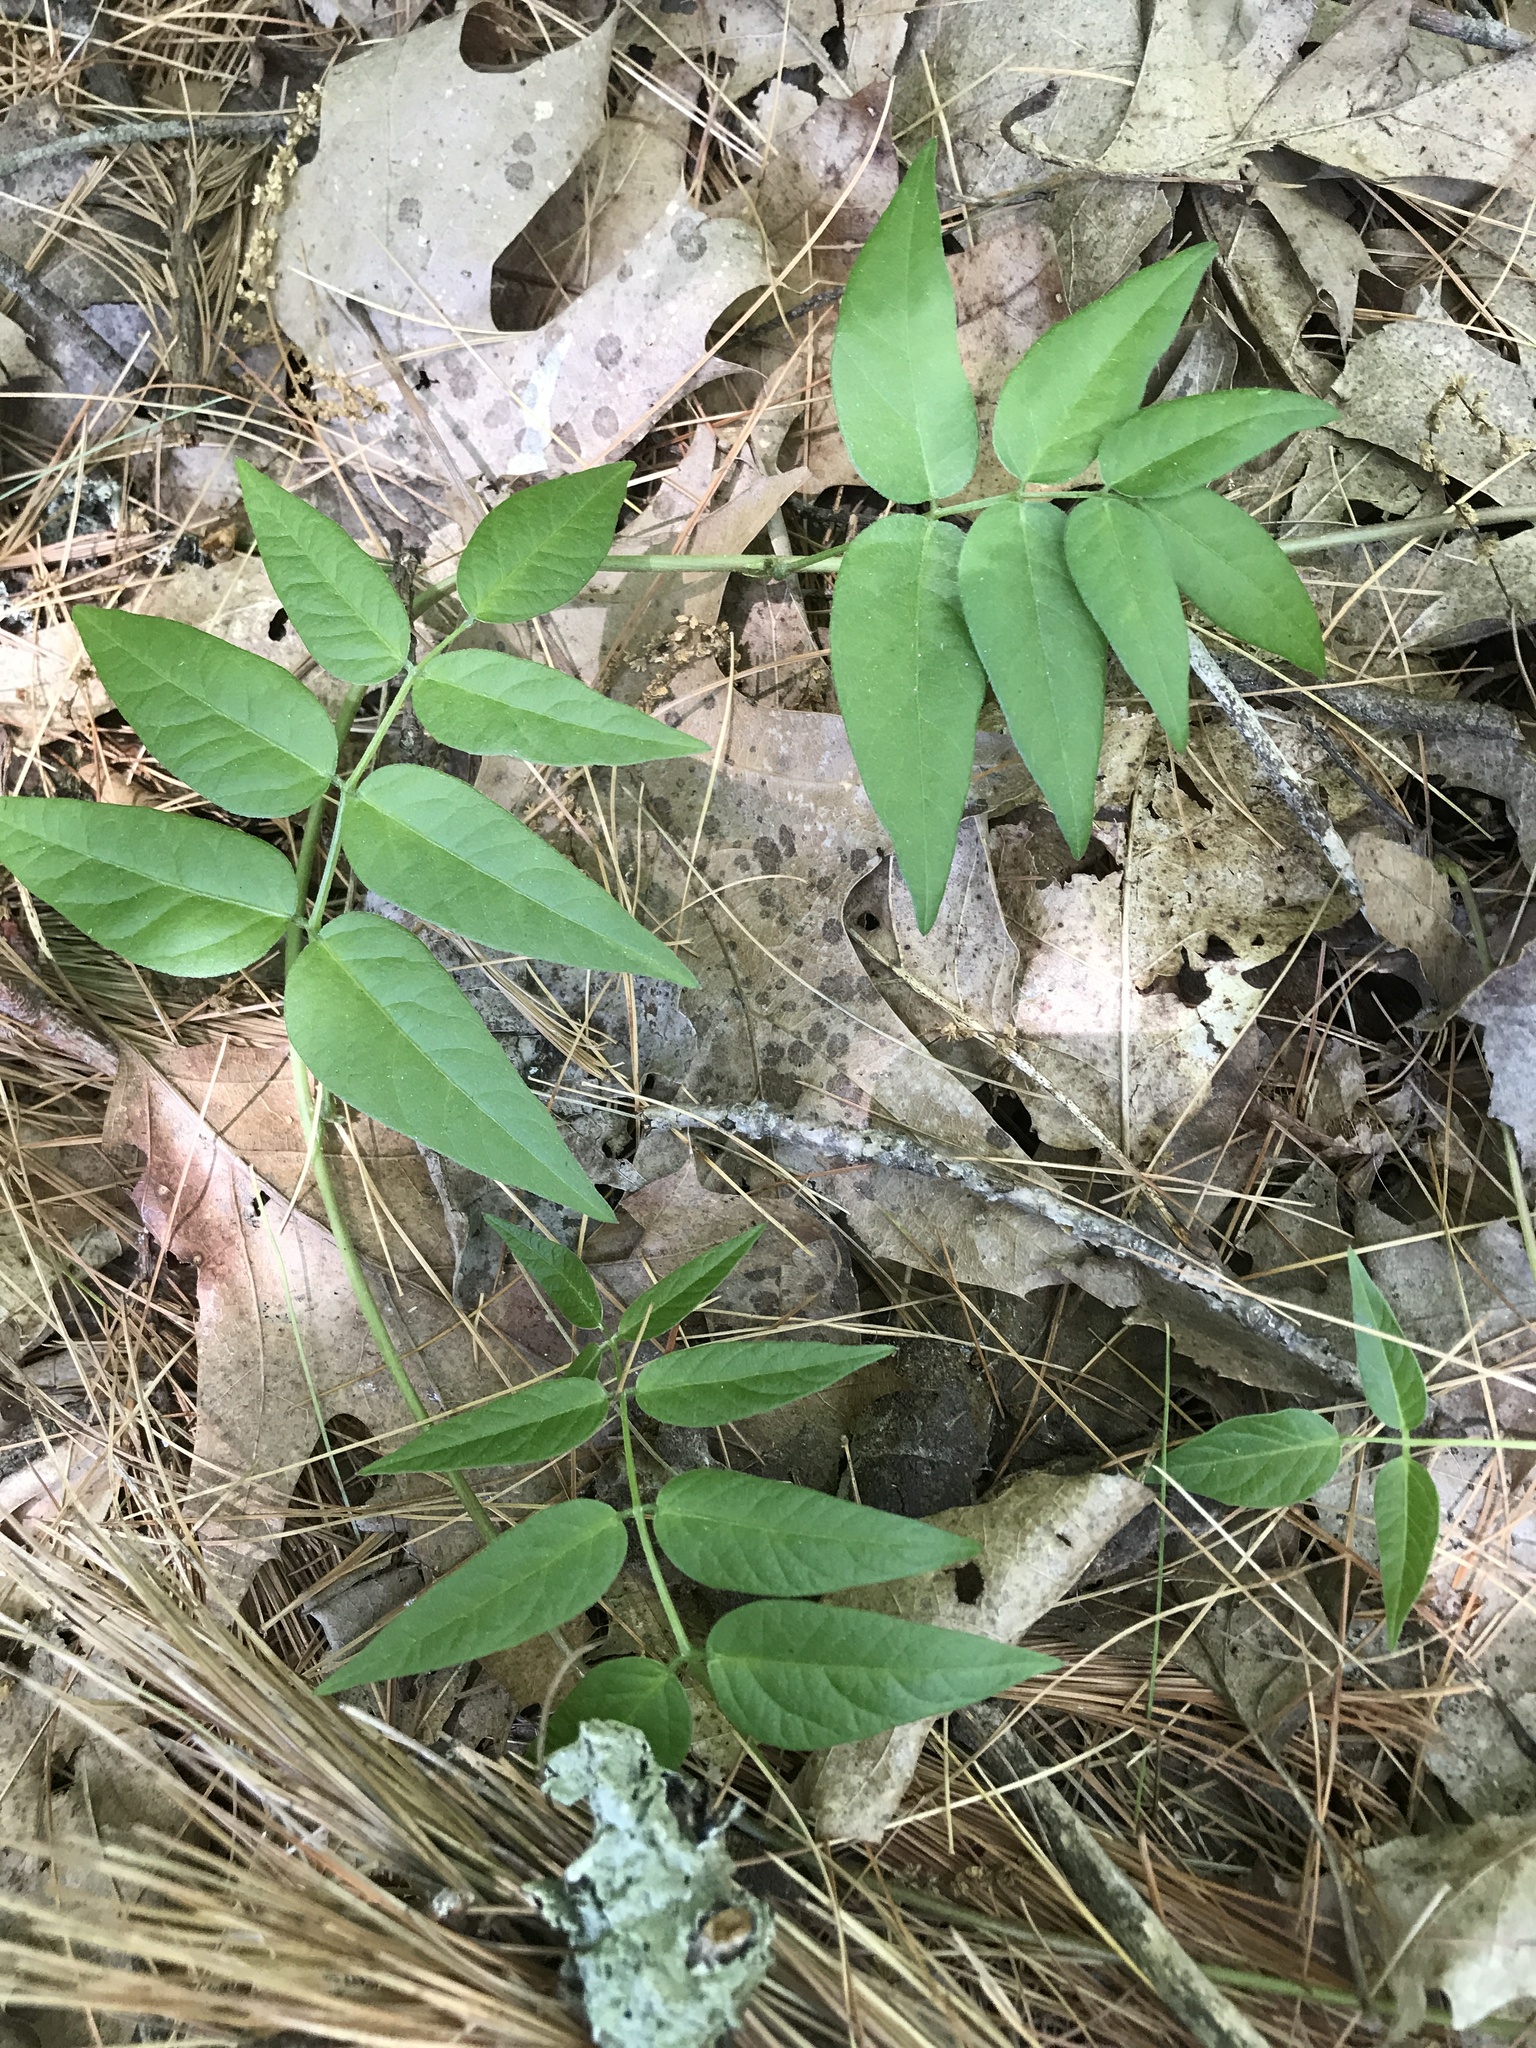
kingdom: Plantae
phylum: Tracheophyta
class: Magnoliopsida
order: Fabales
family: Fabaceae
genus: Apios
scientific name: Apios americana
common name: American potato-bean
